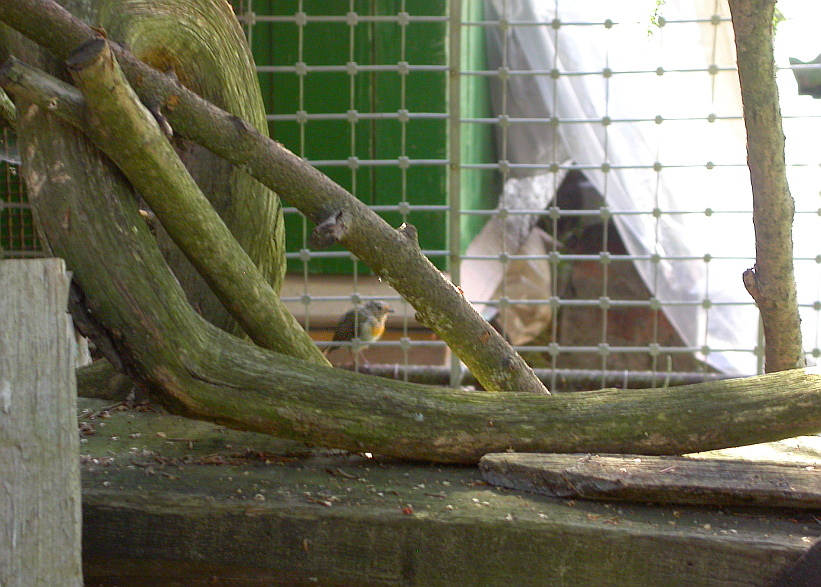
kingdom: Animalia
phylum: Chordata
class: Aves
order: Passeriformes
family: Muscicapidae
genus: Erithacus
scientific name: Erithacus rubecula
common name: European robin
